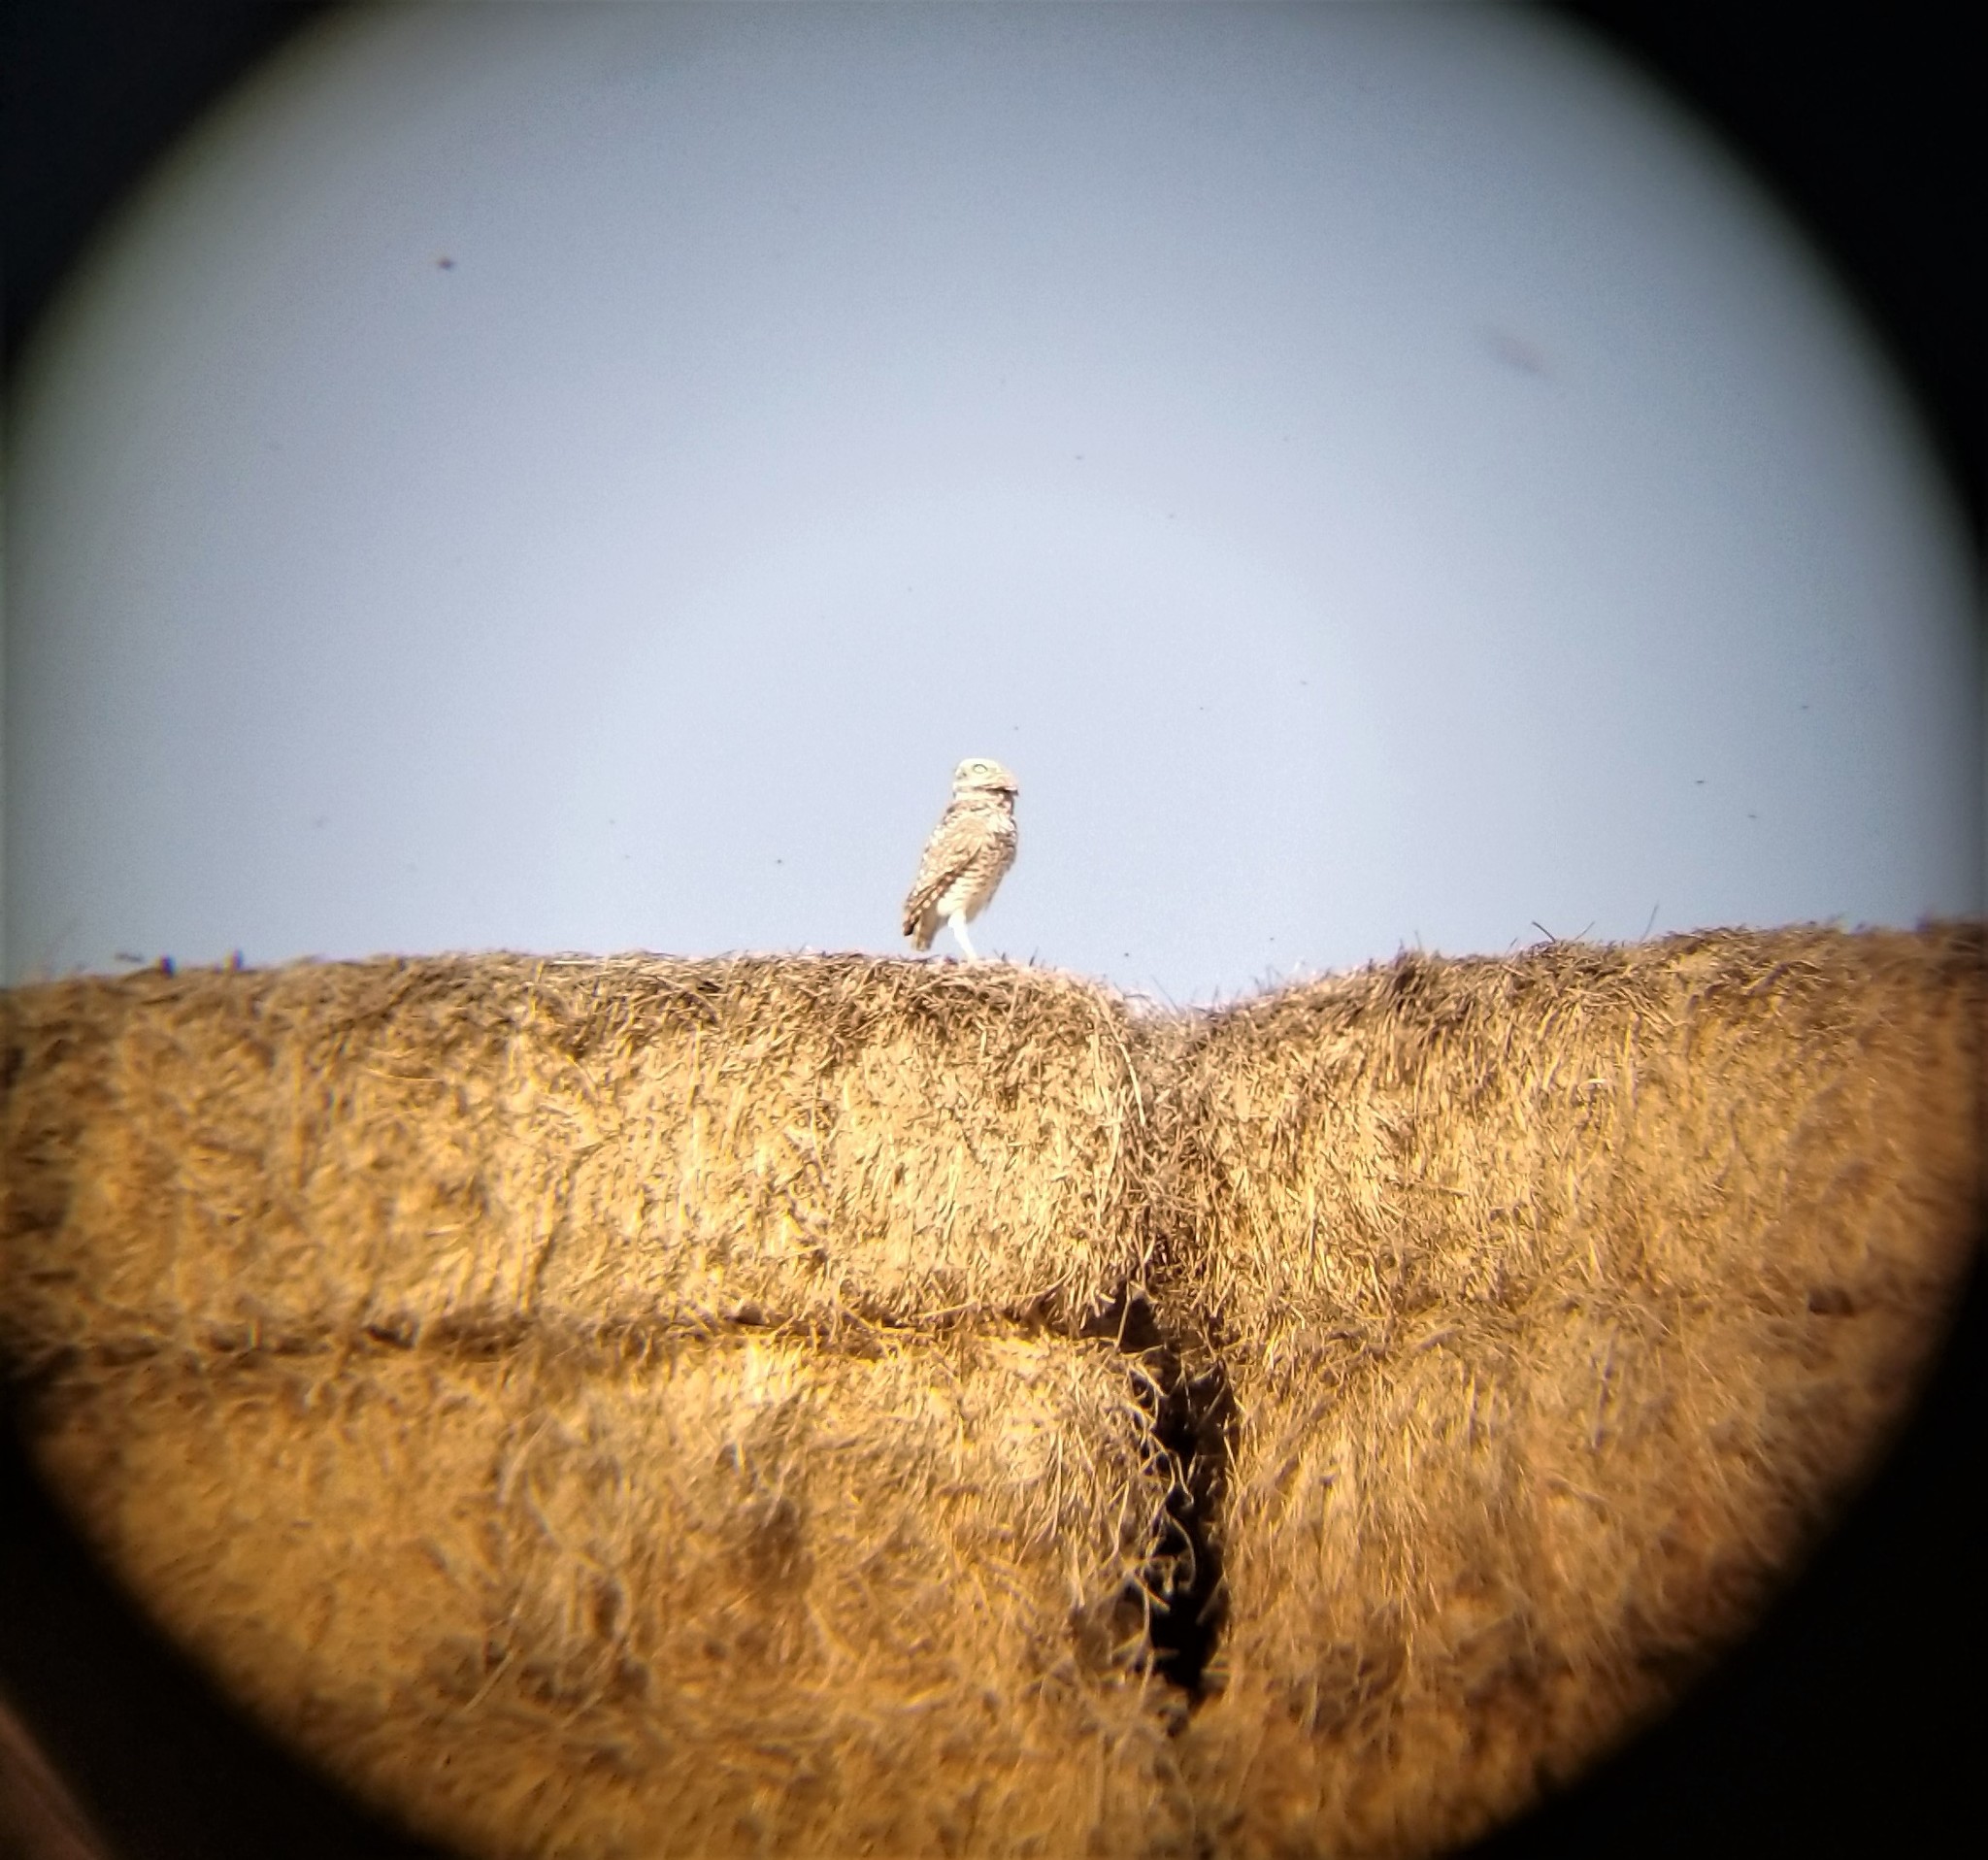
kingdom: Animalia
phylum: Chordata
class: Aves
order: Strigiformes
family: Strigidae
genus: Athene
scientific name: Athene cunicularia
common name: Burrowing owl
